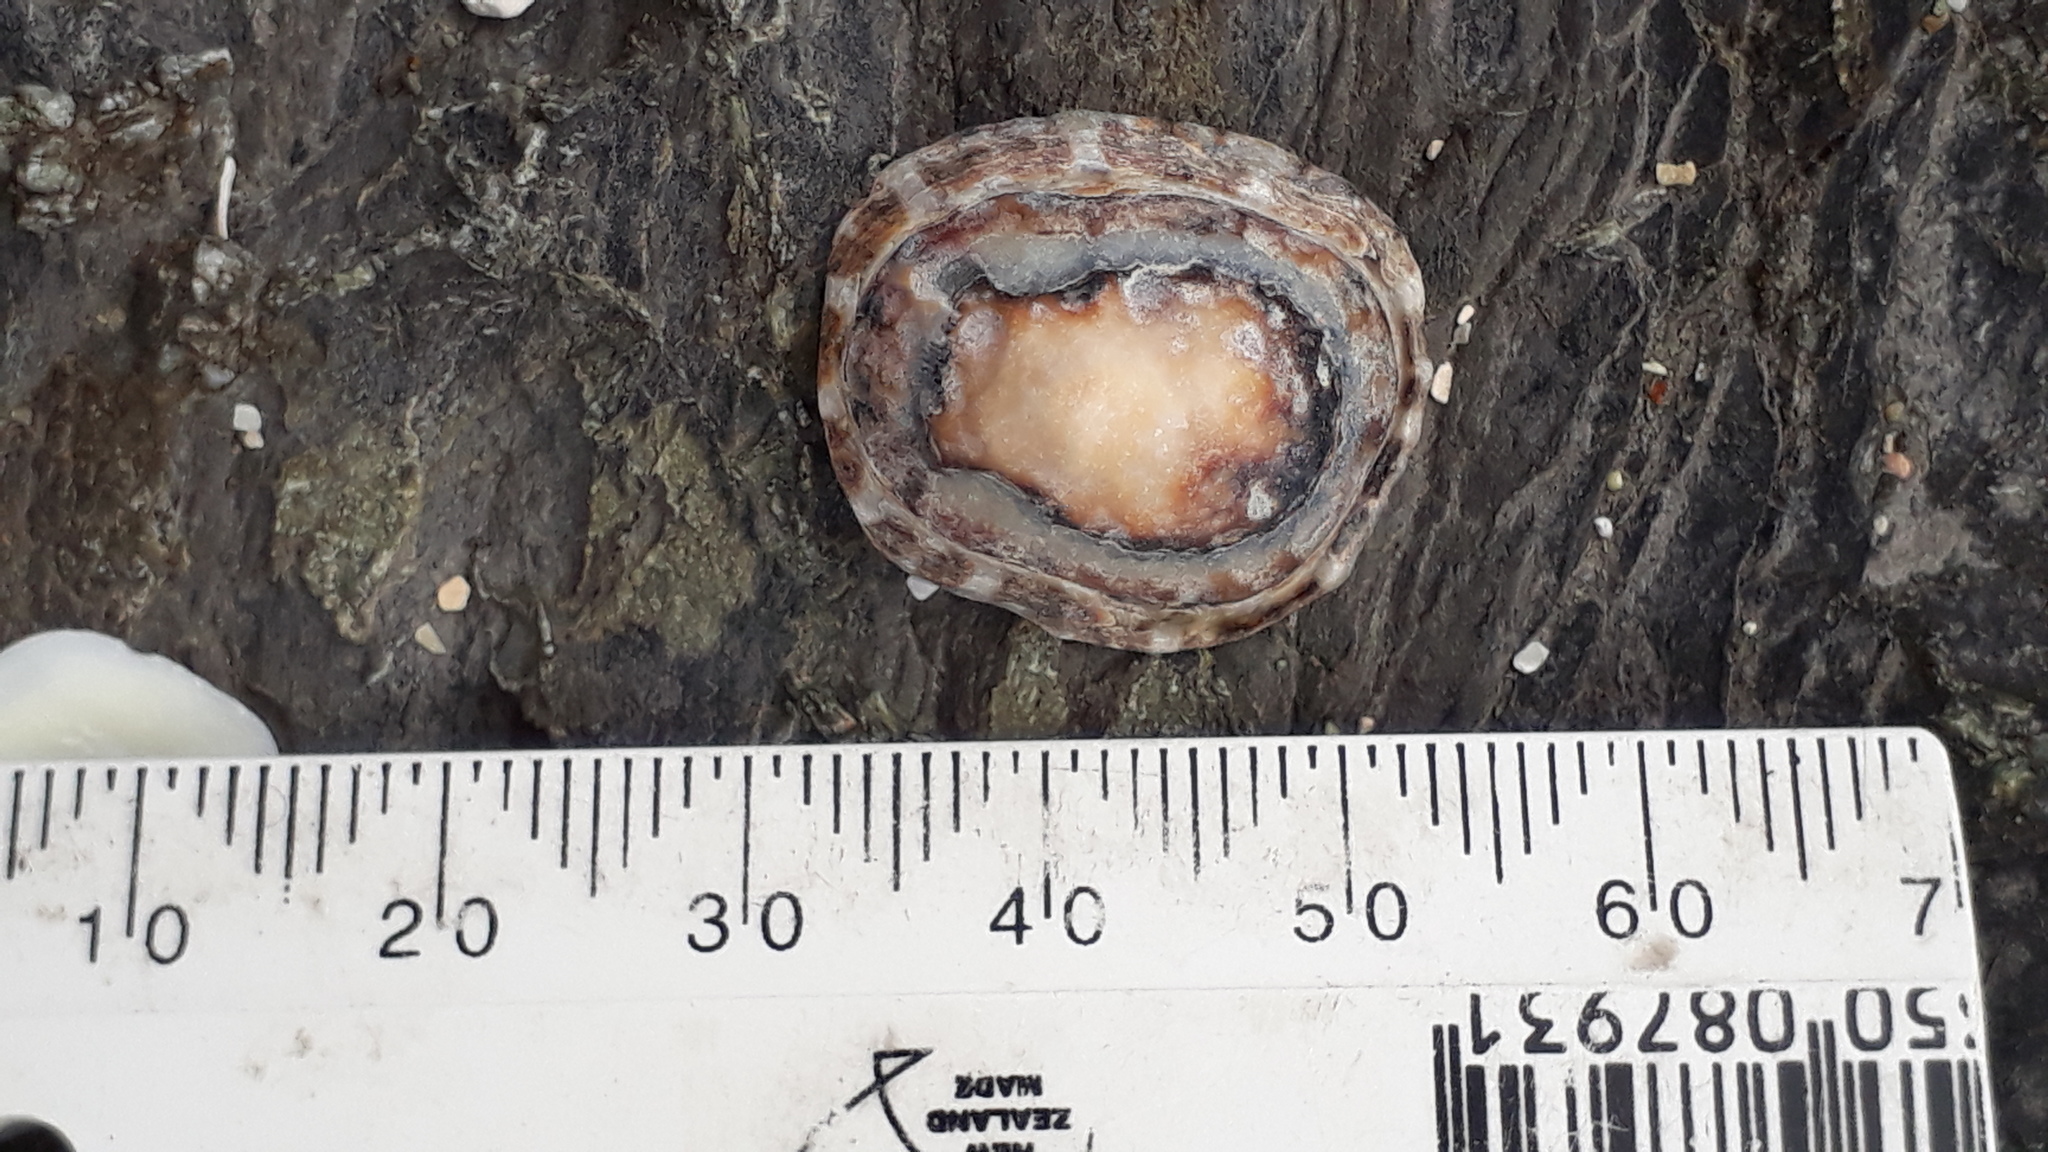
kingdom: Animalia
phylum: Mollusca
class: Gastropoda
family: Nacellidae
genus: Cellana
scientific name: Cellana ornata
